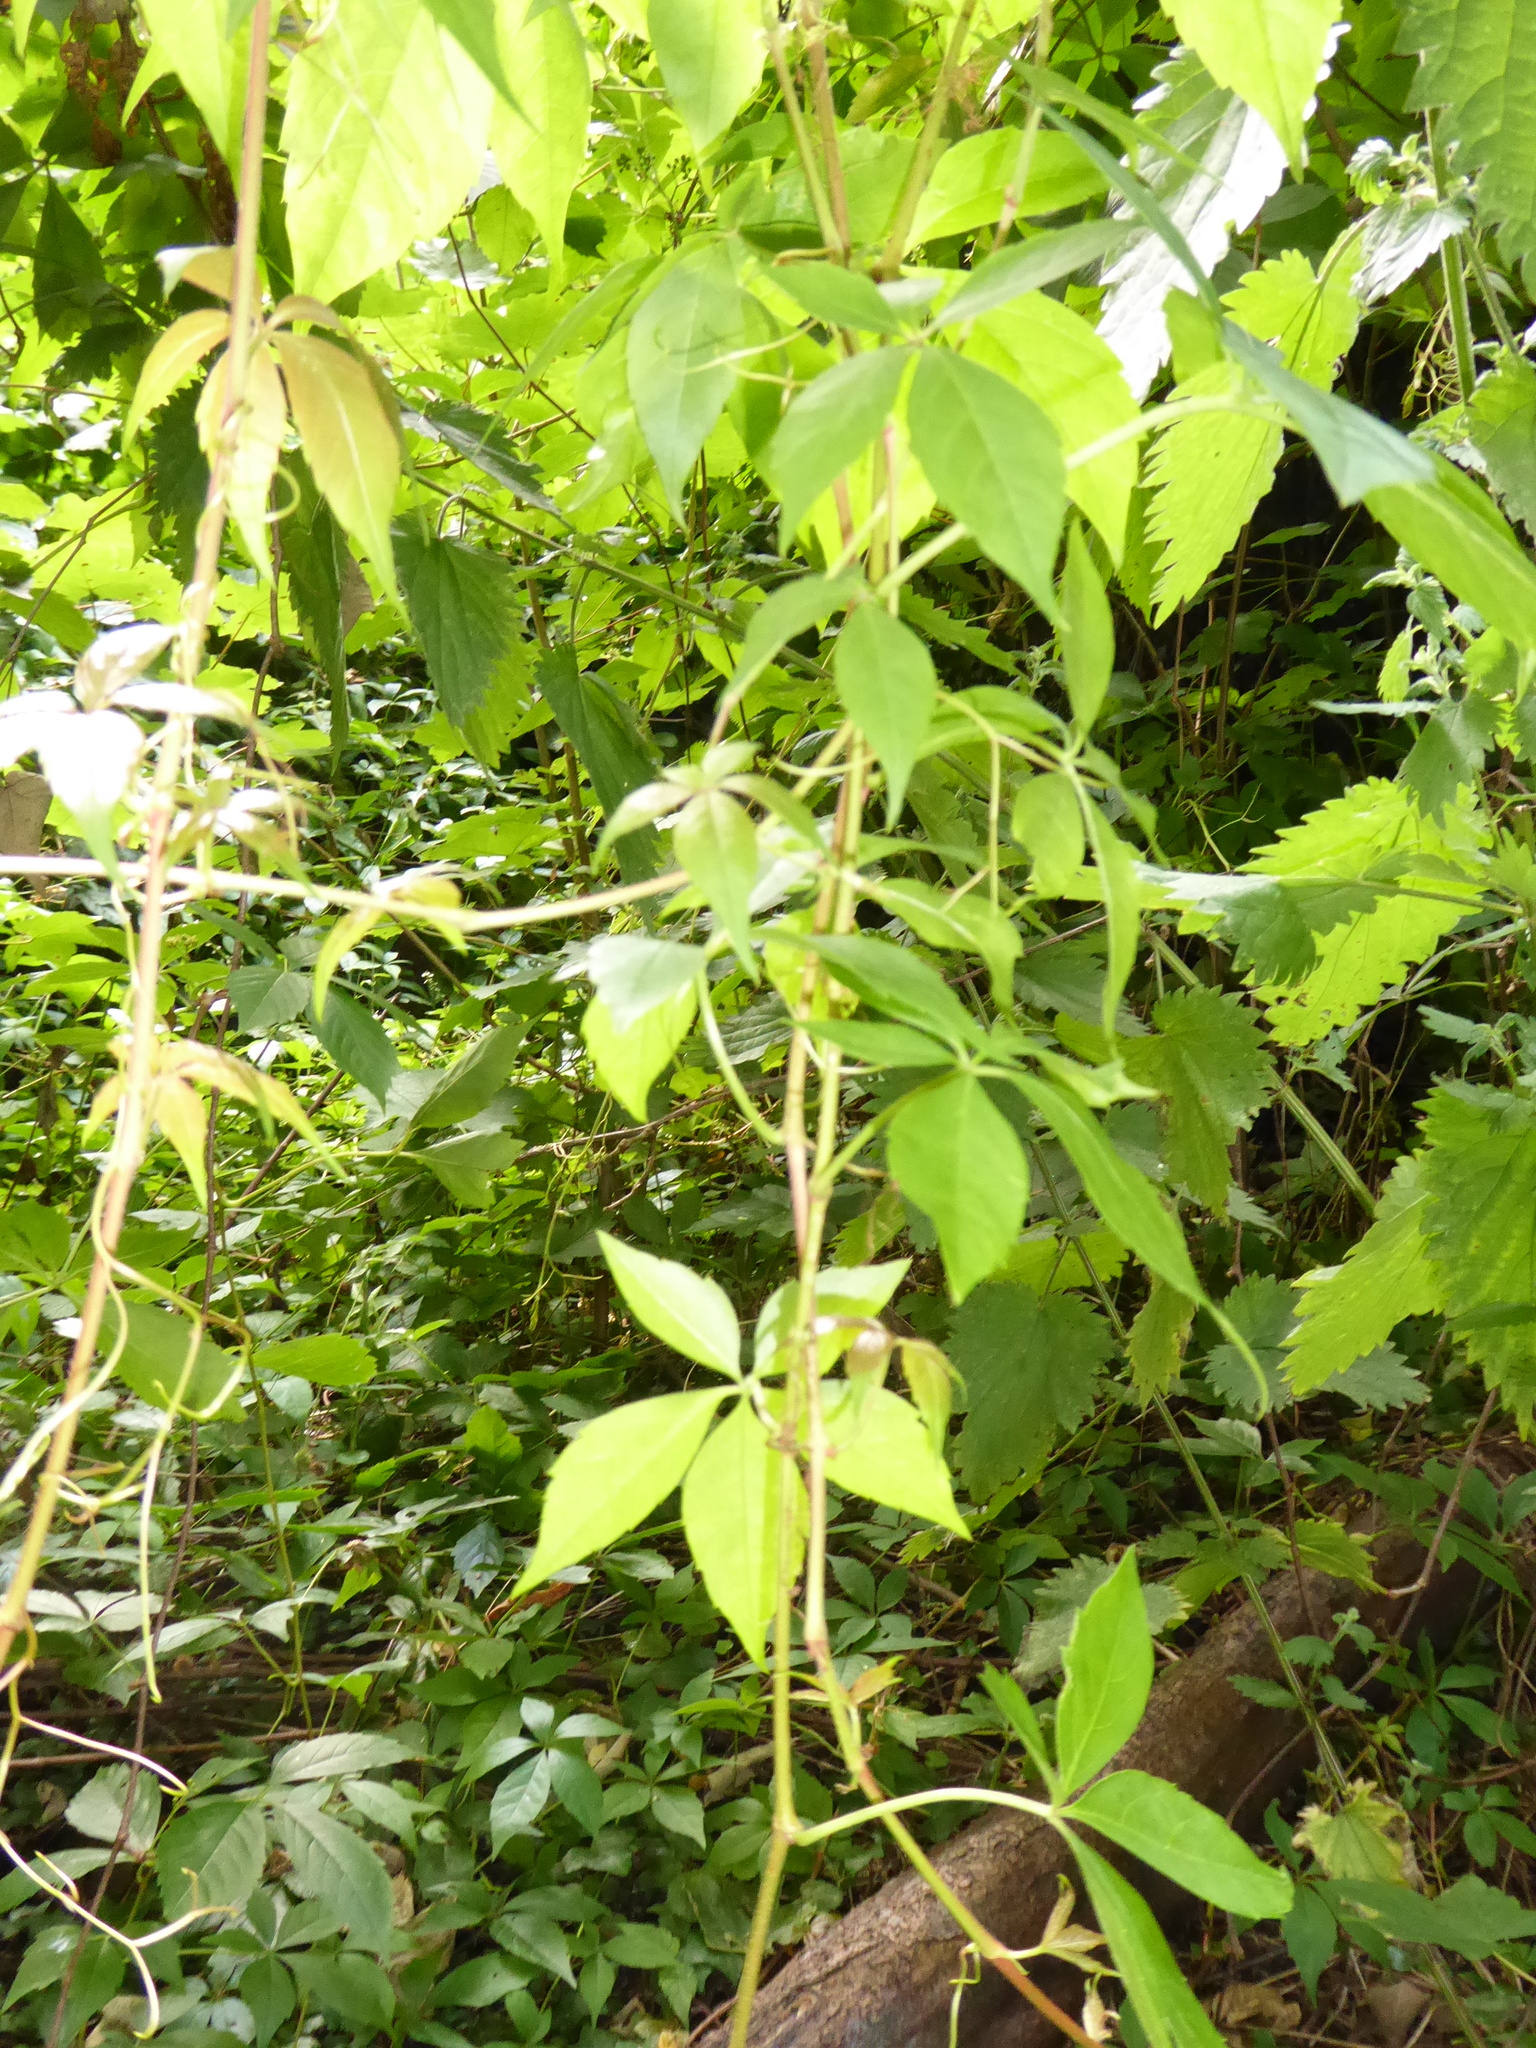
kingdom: Plantae
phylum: Tracheophyta
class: Magnoliopsida
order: Vitales
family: Vitaceae
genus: Parthenocissus
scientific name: Parthenocissus quinquefolia
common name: Virginia-creeper
